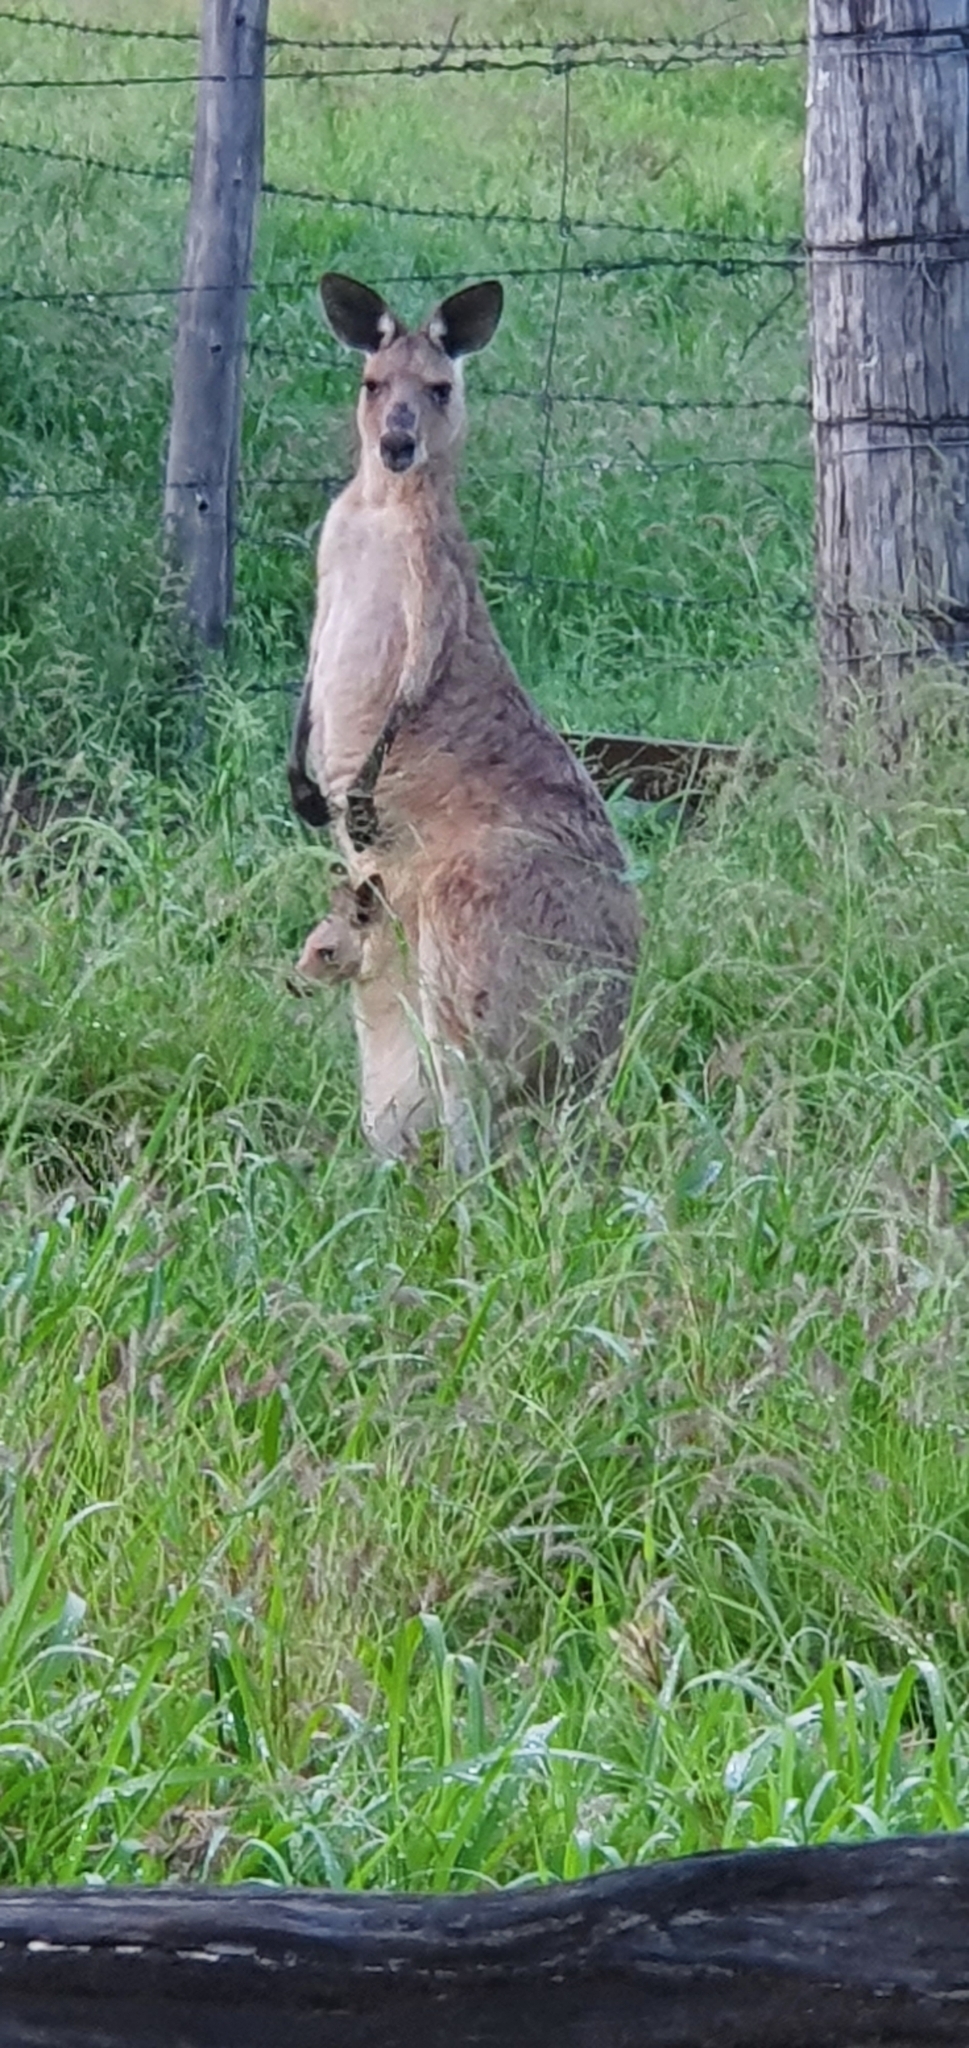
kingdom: Animalia
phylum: Chordata
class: Mammalia
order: Diprotodontia
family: Macropodidae
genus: Macropus
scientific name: Macropus giganteus
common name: Eastern grey kangaroo
